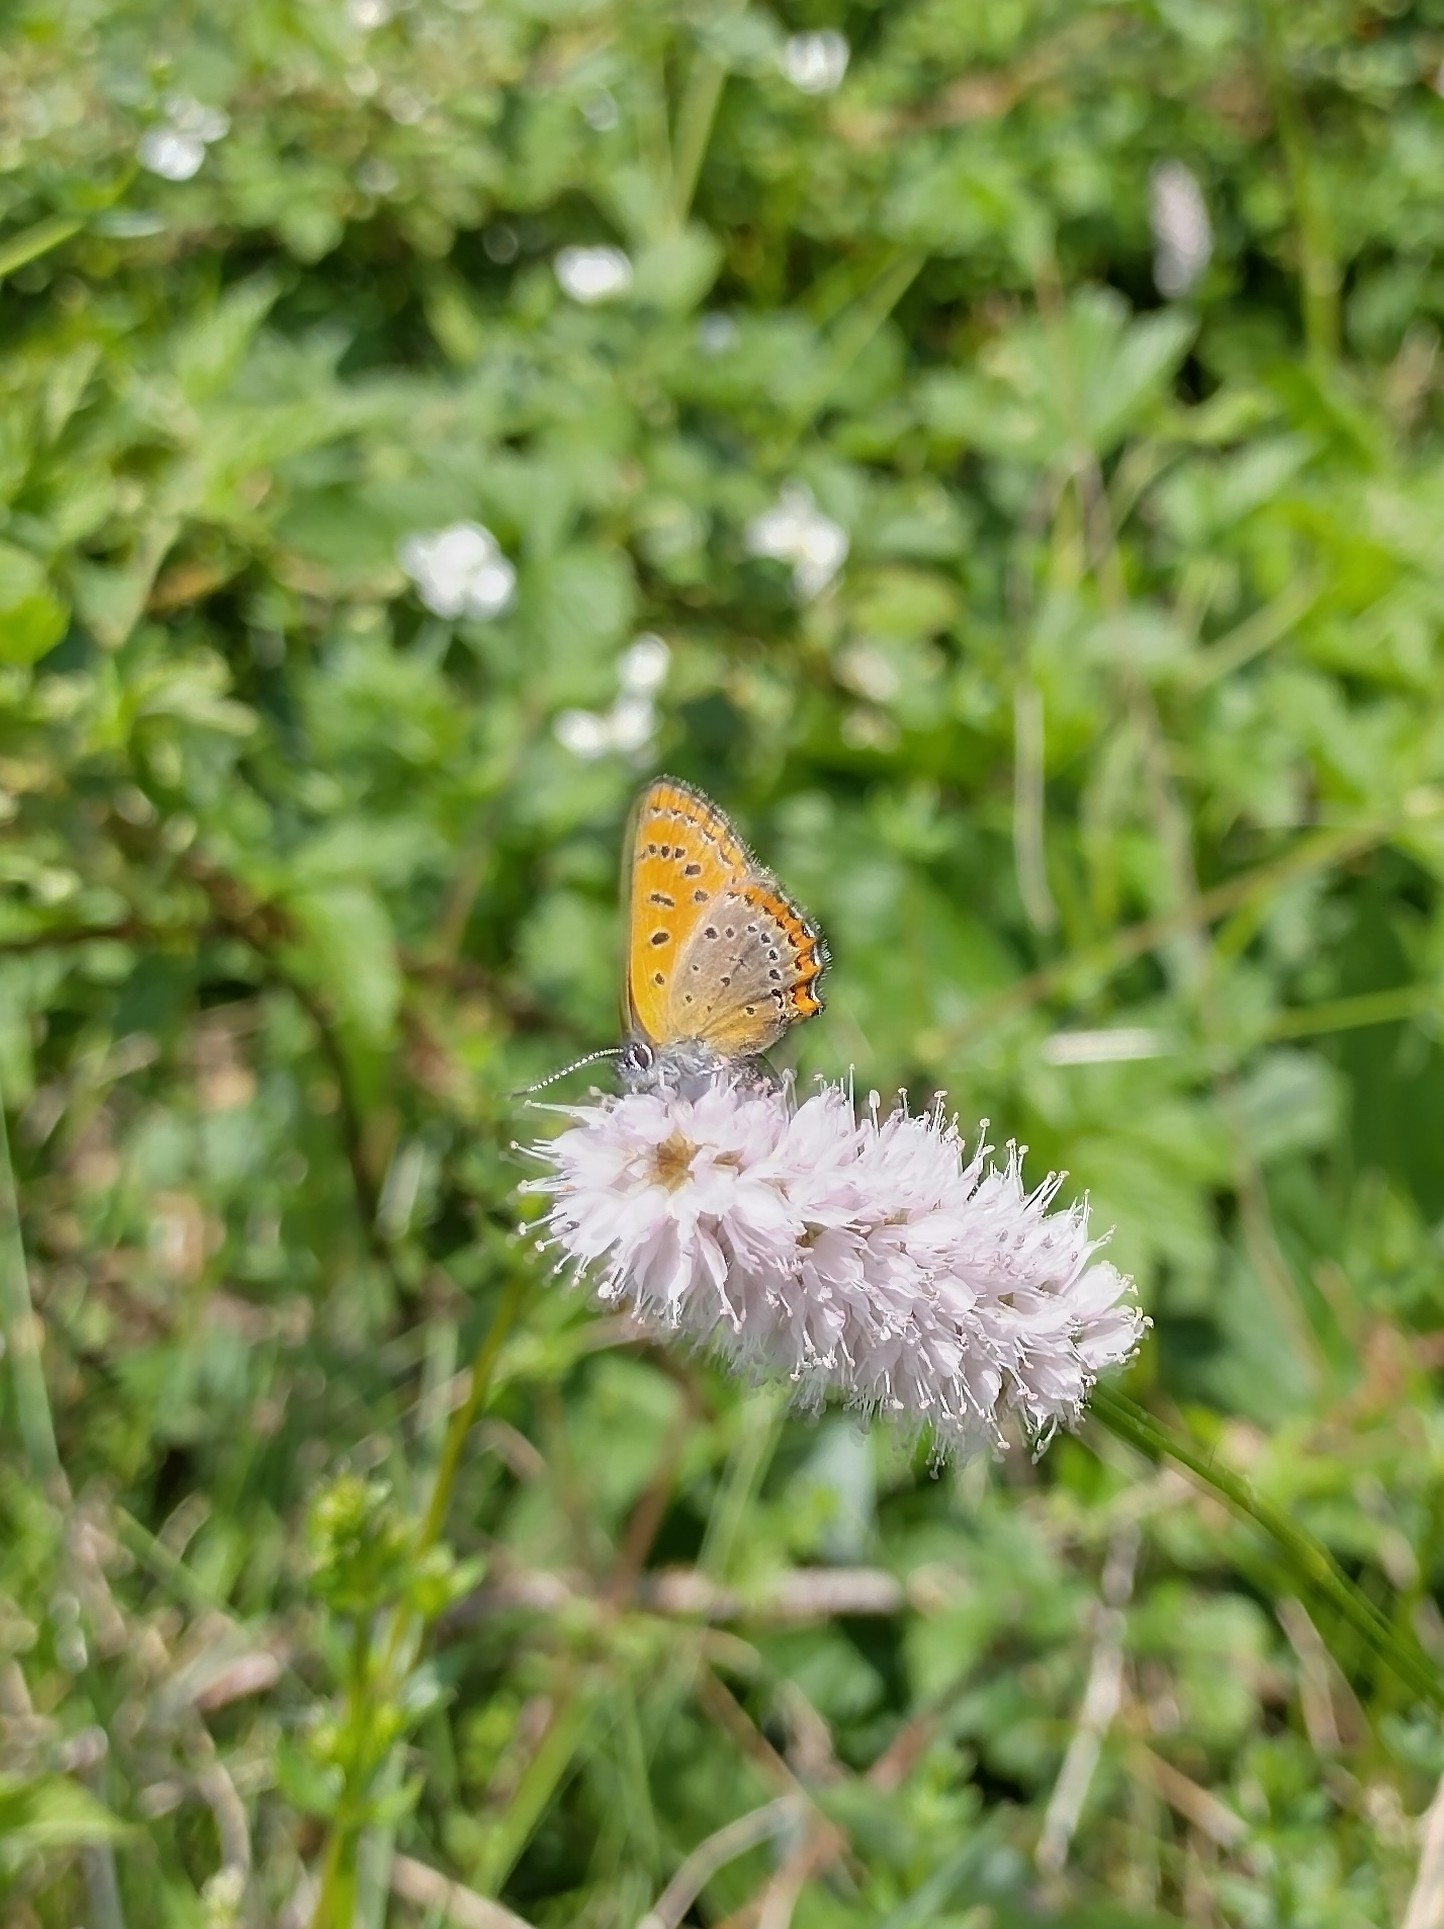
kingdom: Animalia
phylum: Arthropoda
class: Insecta
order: Lepidoptera
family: Lycaenidae
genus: Helleia
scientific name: Helleia helle
